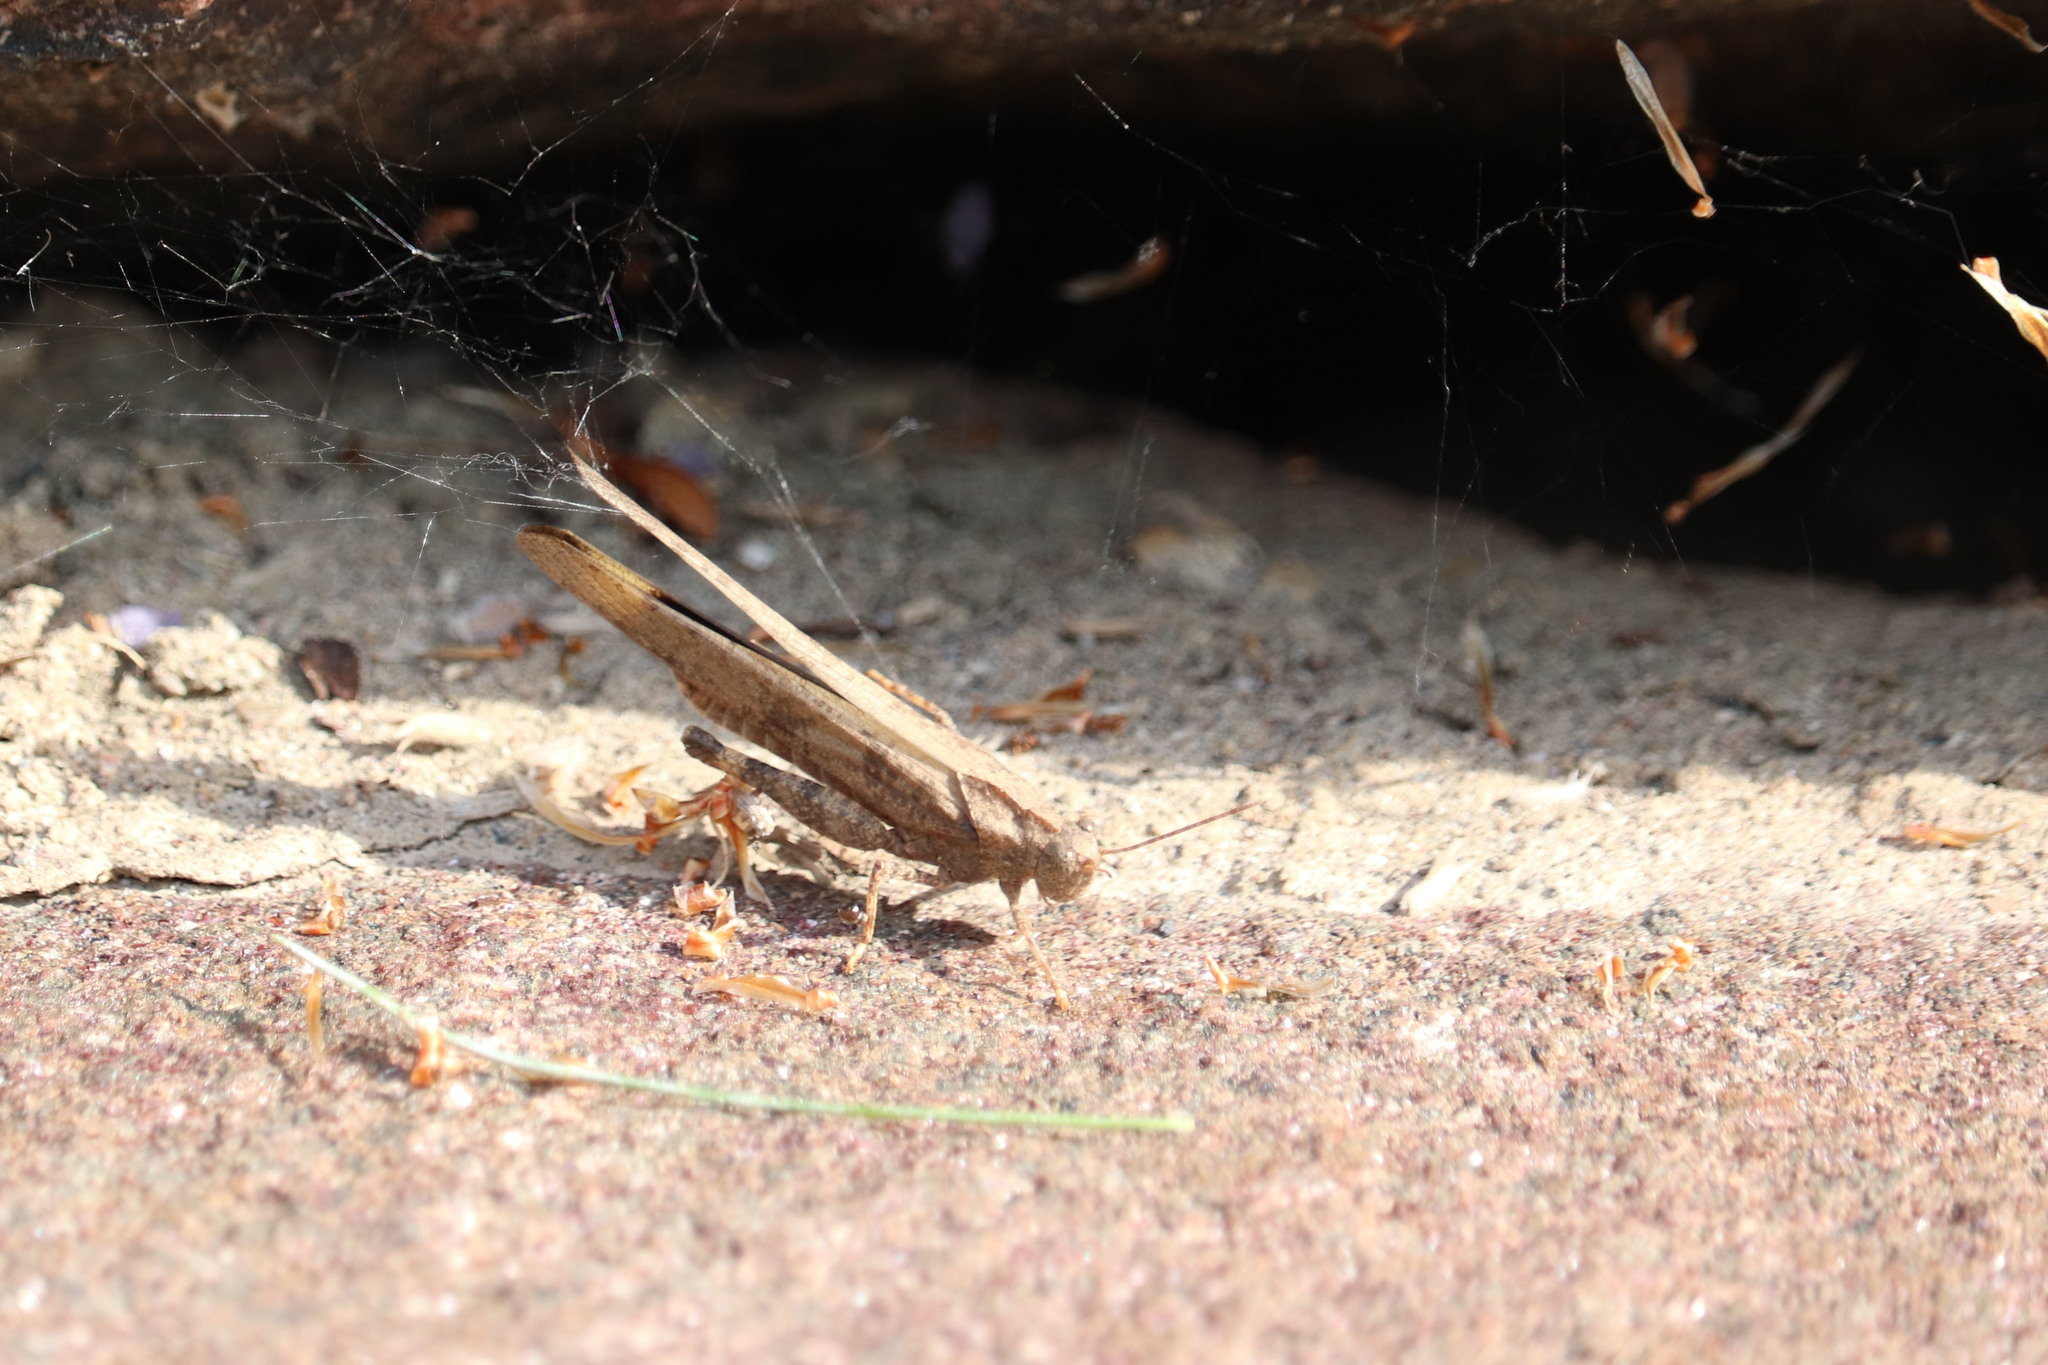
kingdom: Animalia
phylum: Arthropoda
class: Insecta
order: Orthoptera
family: Acrididae
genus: Dissosteira
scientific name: Dissosteira carolina
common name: Carolina grasshopper
